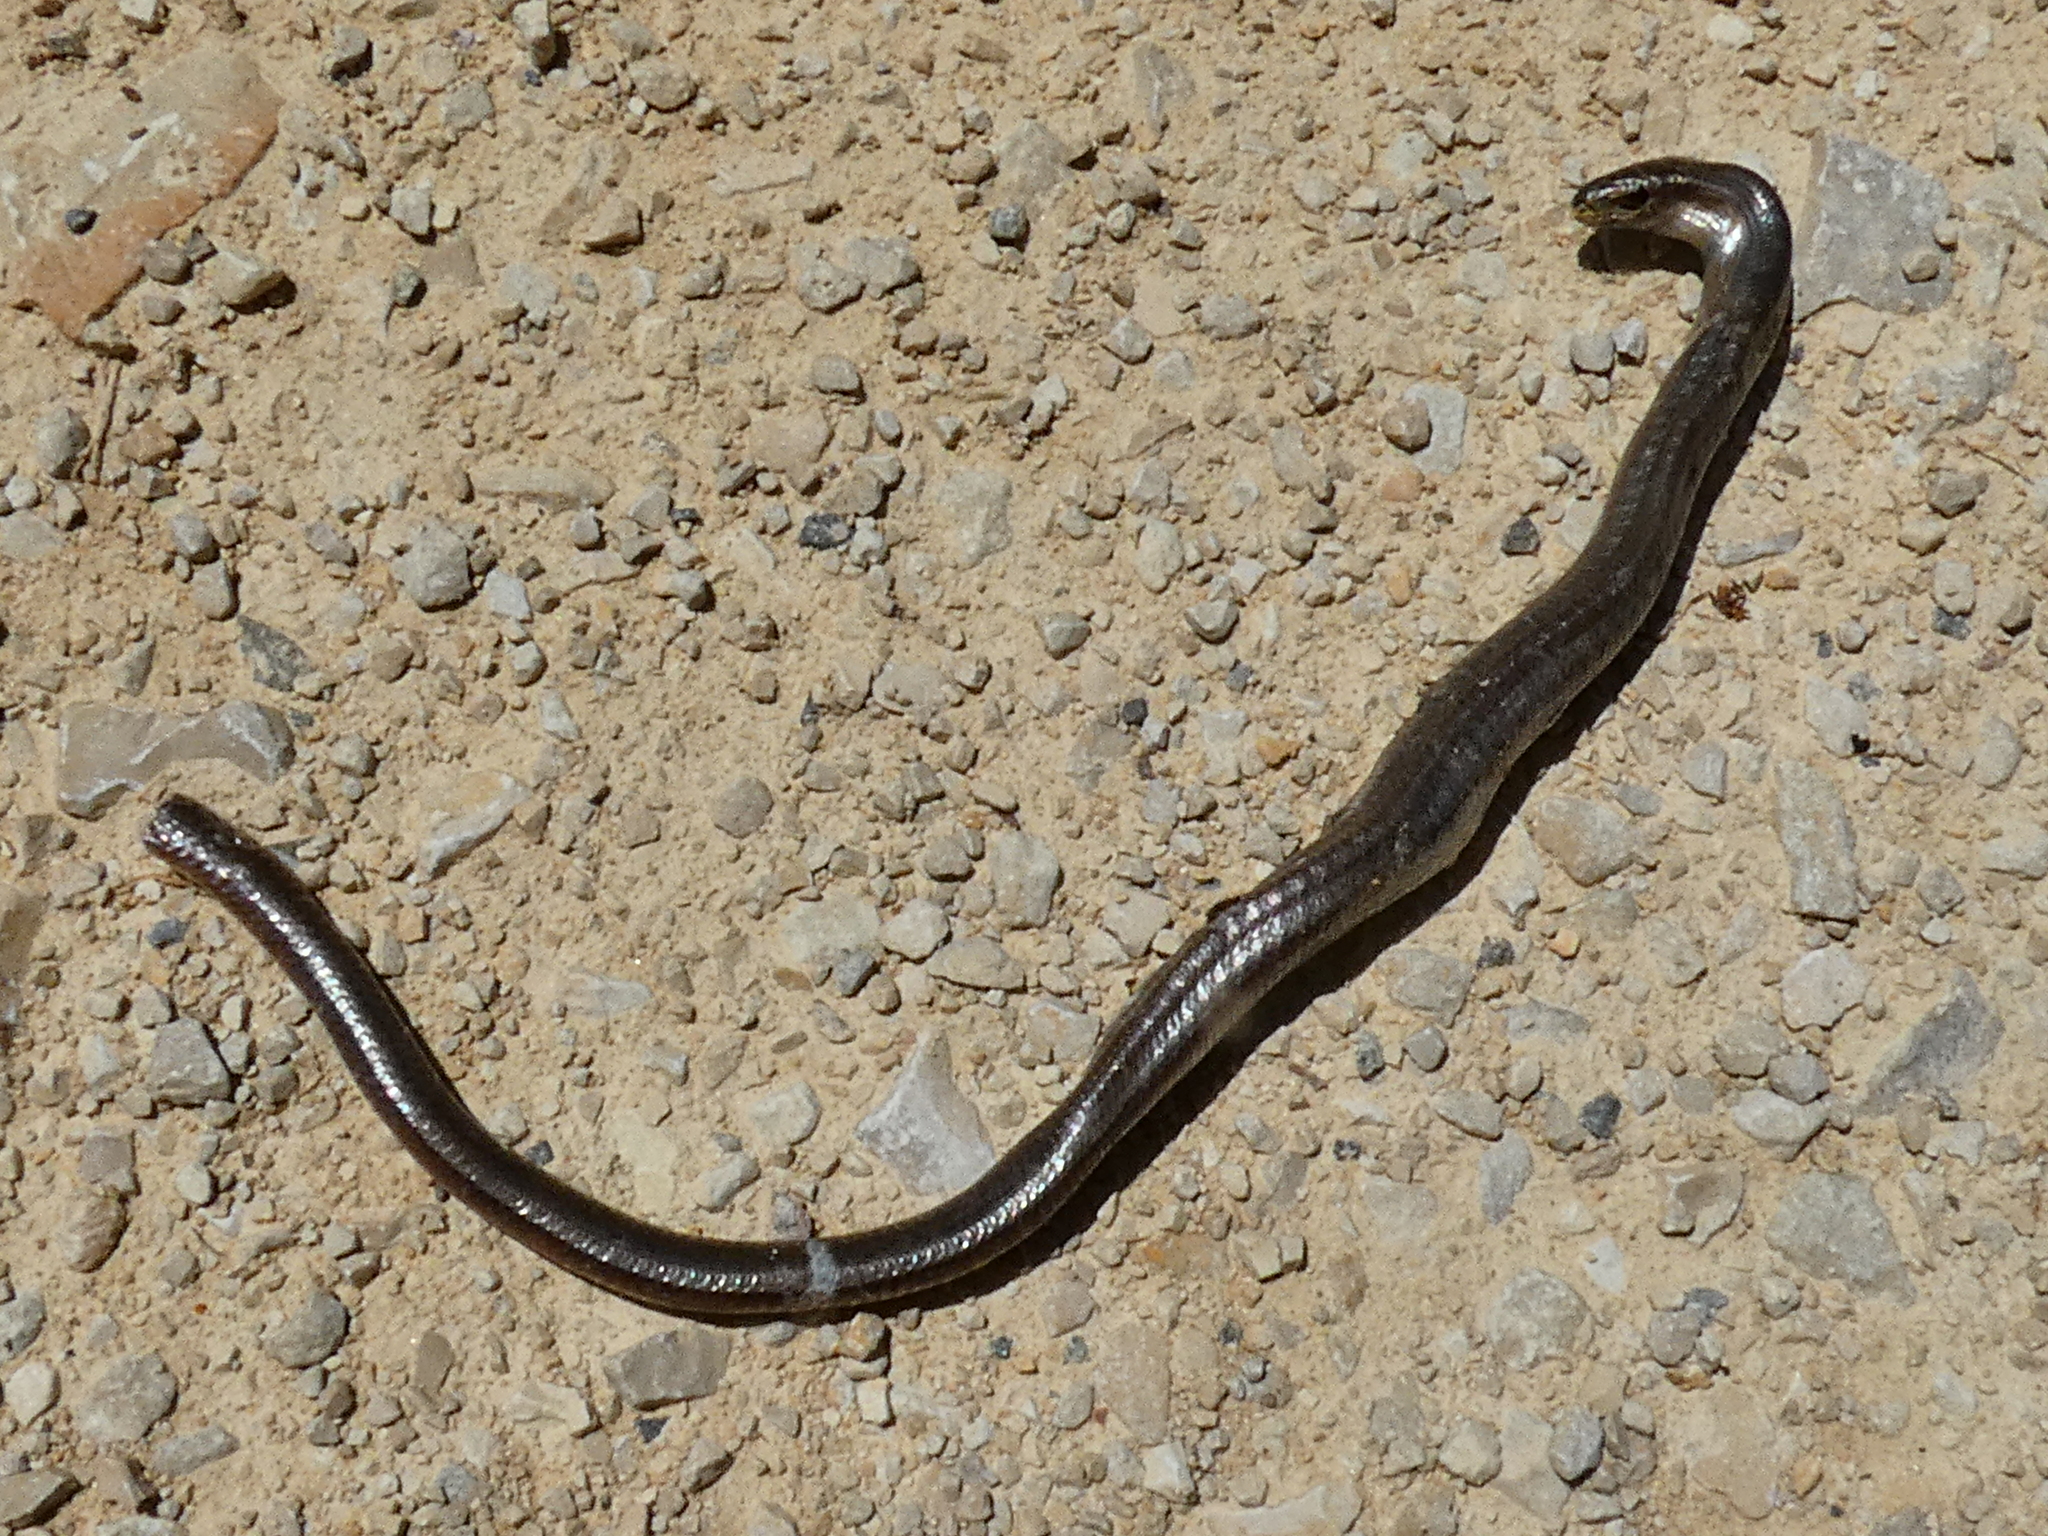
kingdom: Animalia
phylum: Chordata
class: Squamata
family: Anguidae
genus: Anguis
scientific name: Anguis fragilis
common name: Slow worm
